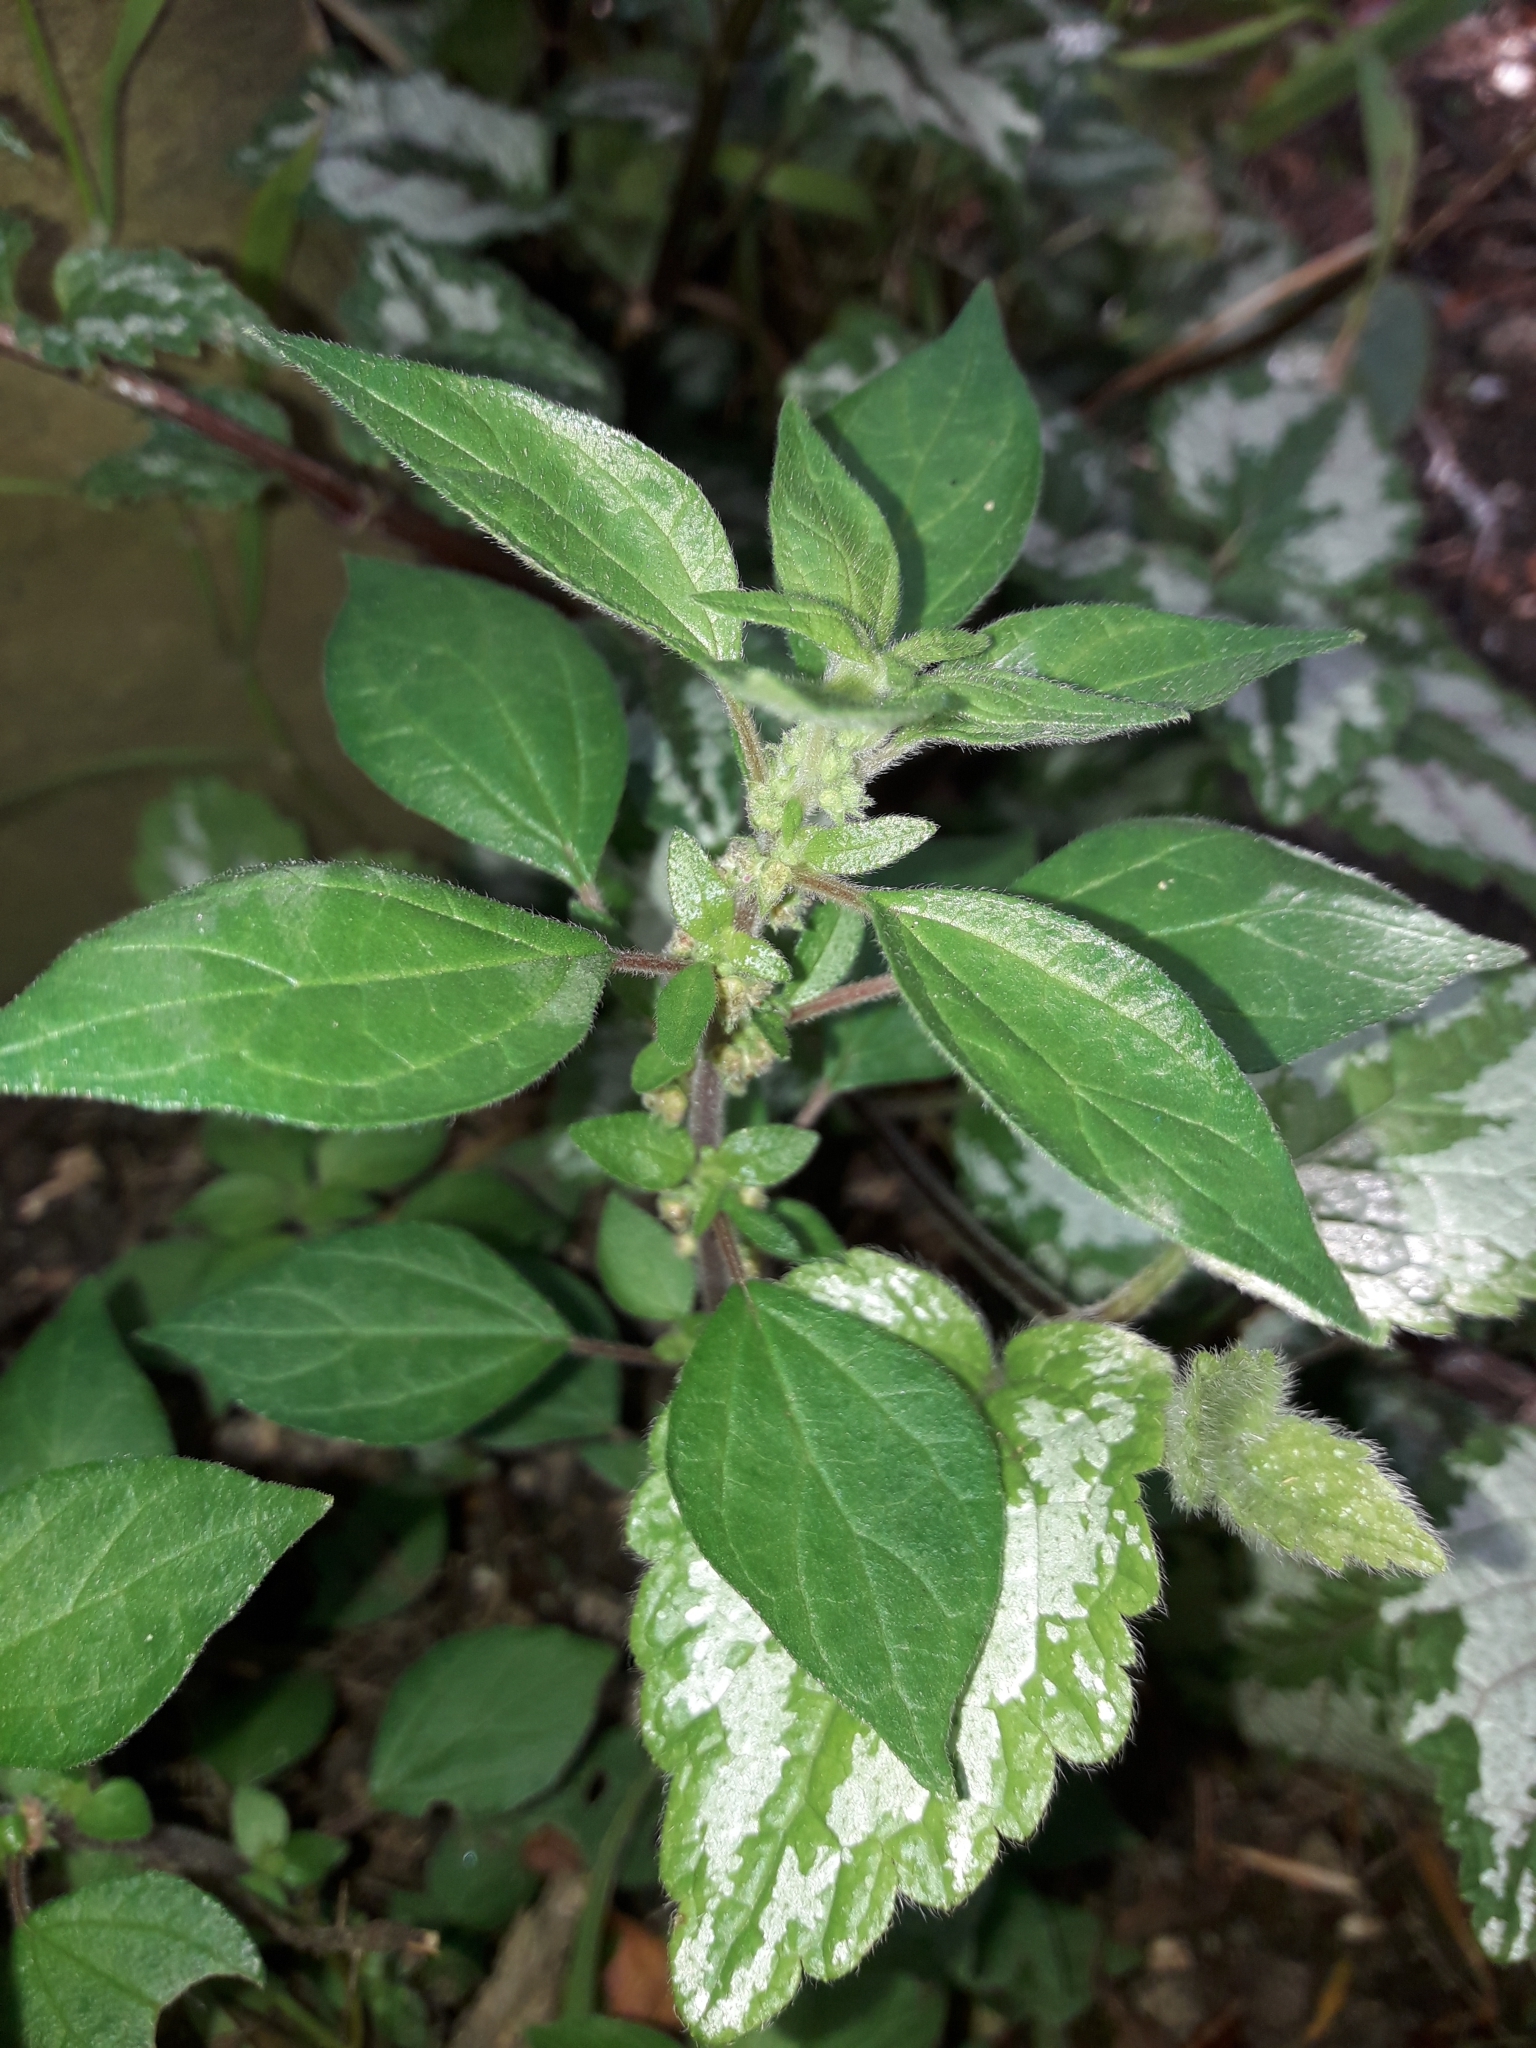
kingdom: Plantae
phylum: Tracheophyta
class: Magnoliopsida
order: Rosales
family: Urticaceae
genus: Parietaria
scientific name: Parietaria judaica
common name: Pellitory-of-the-wall
